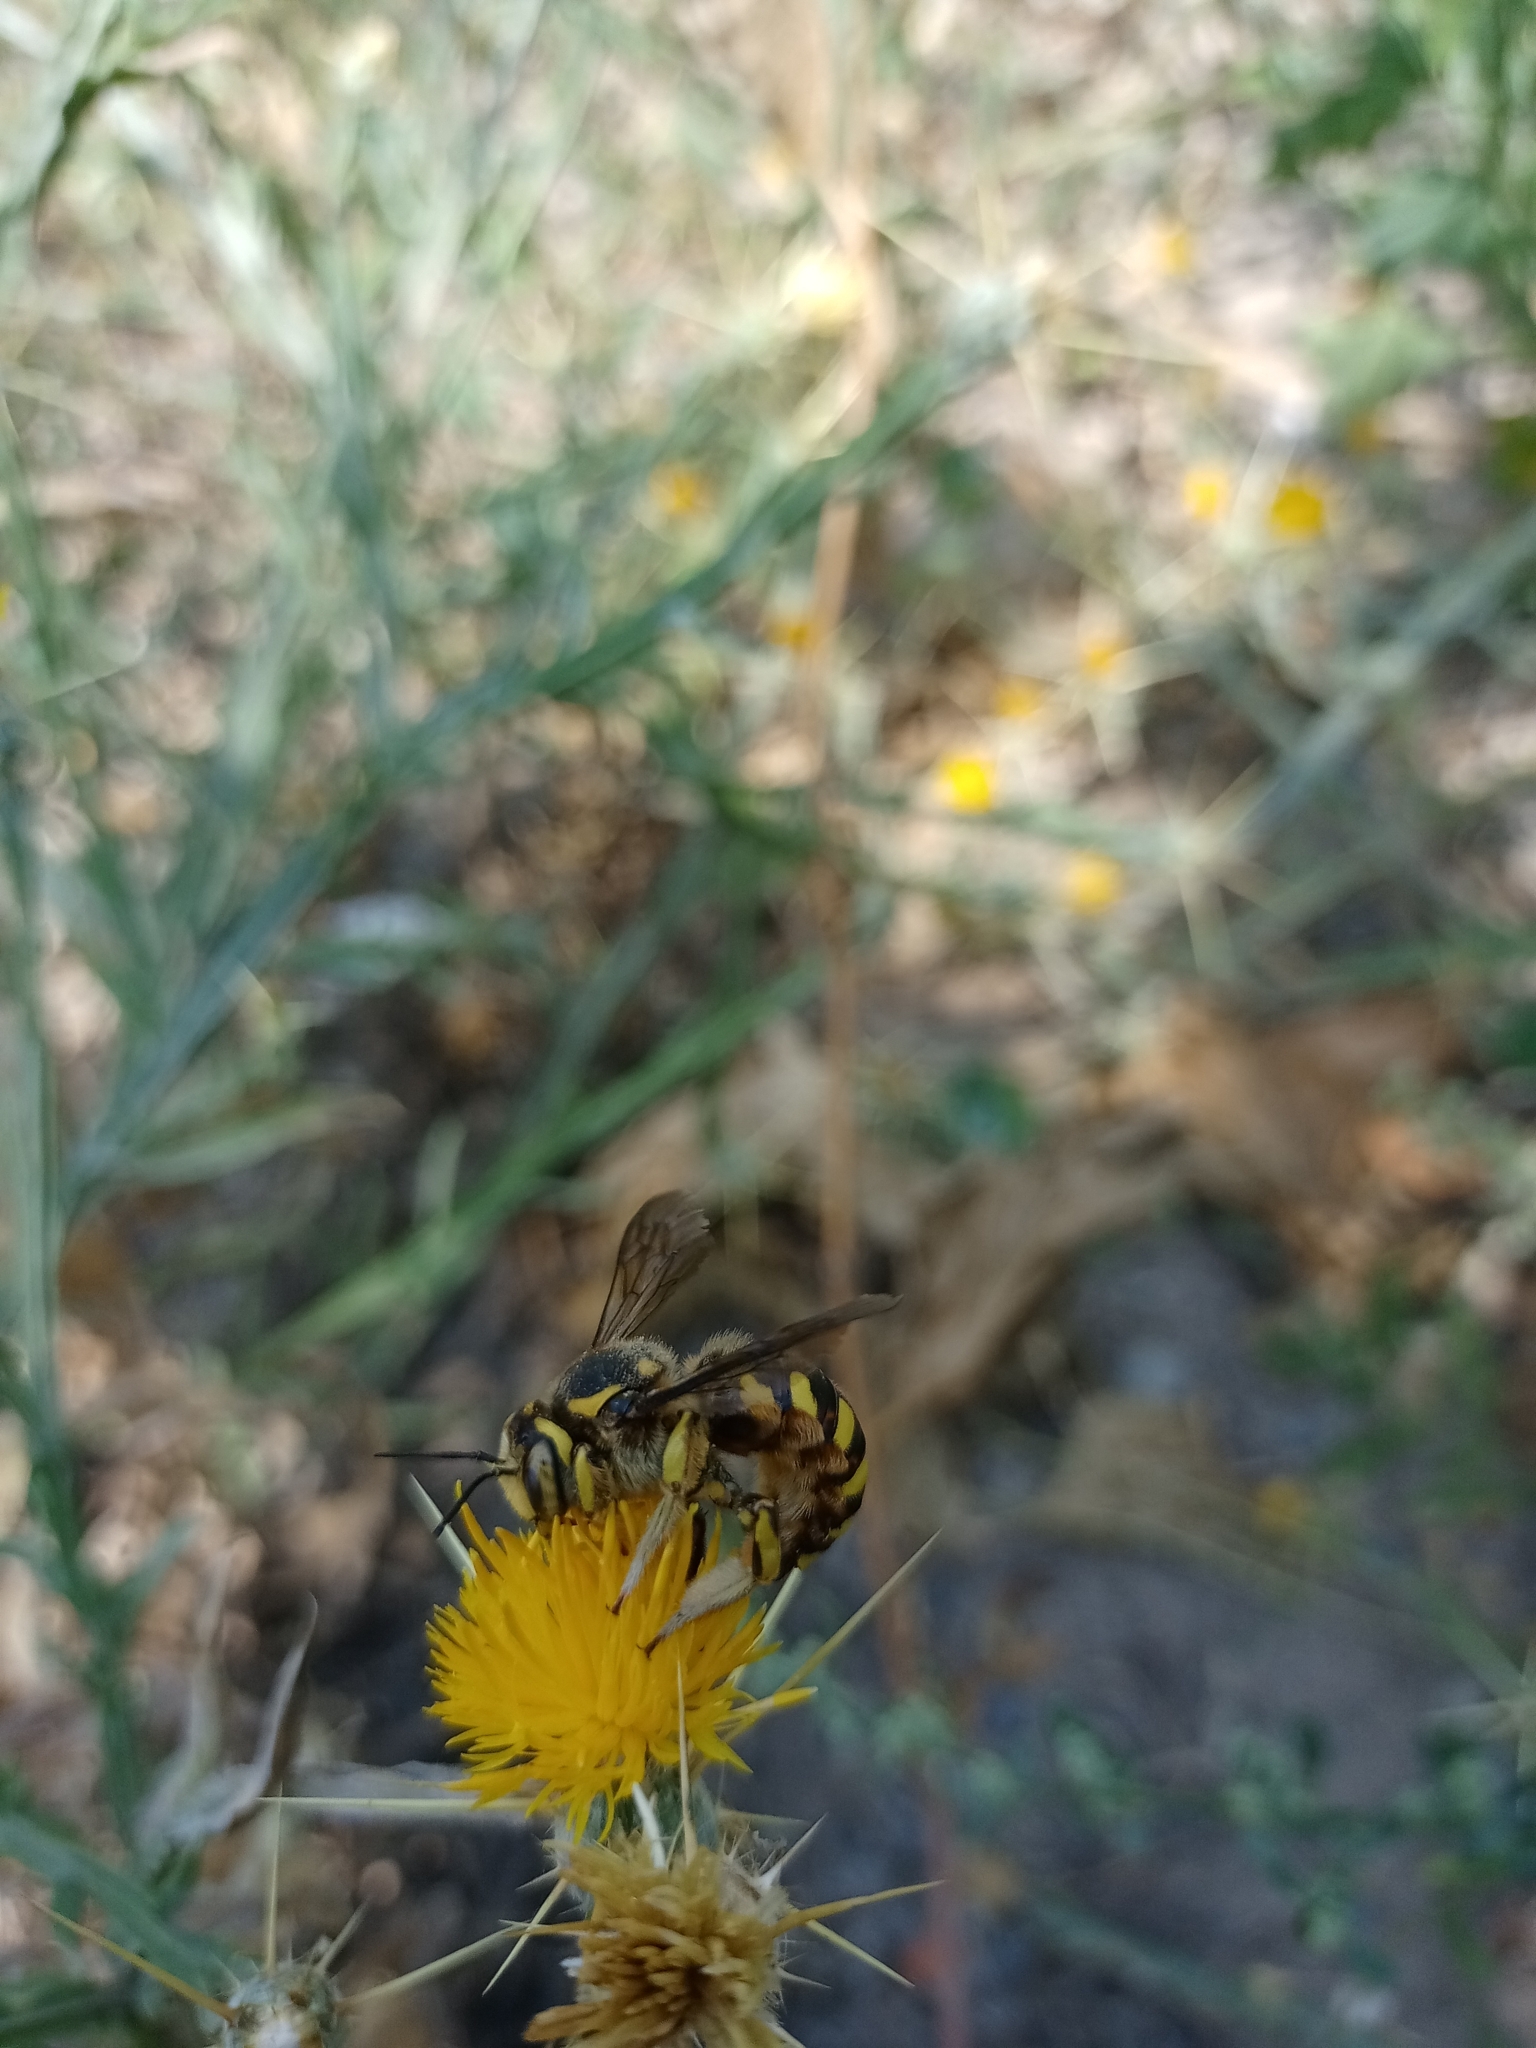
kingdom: Animalia
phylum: Arthropoda
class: Insecta
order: Hymenoptera
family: Megachilidae
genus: Anthidium
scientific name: Anthidium florentinum
